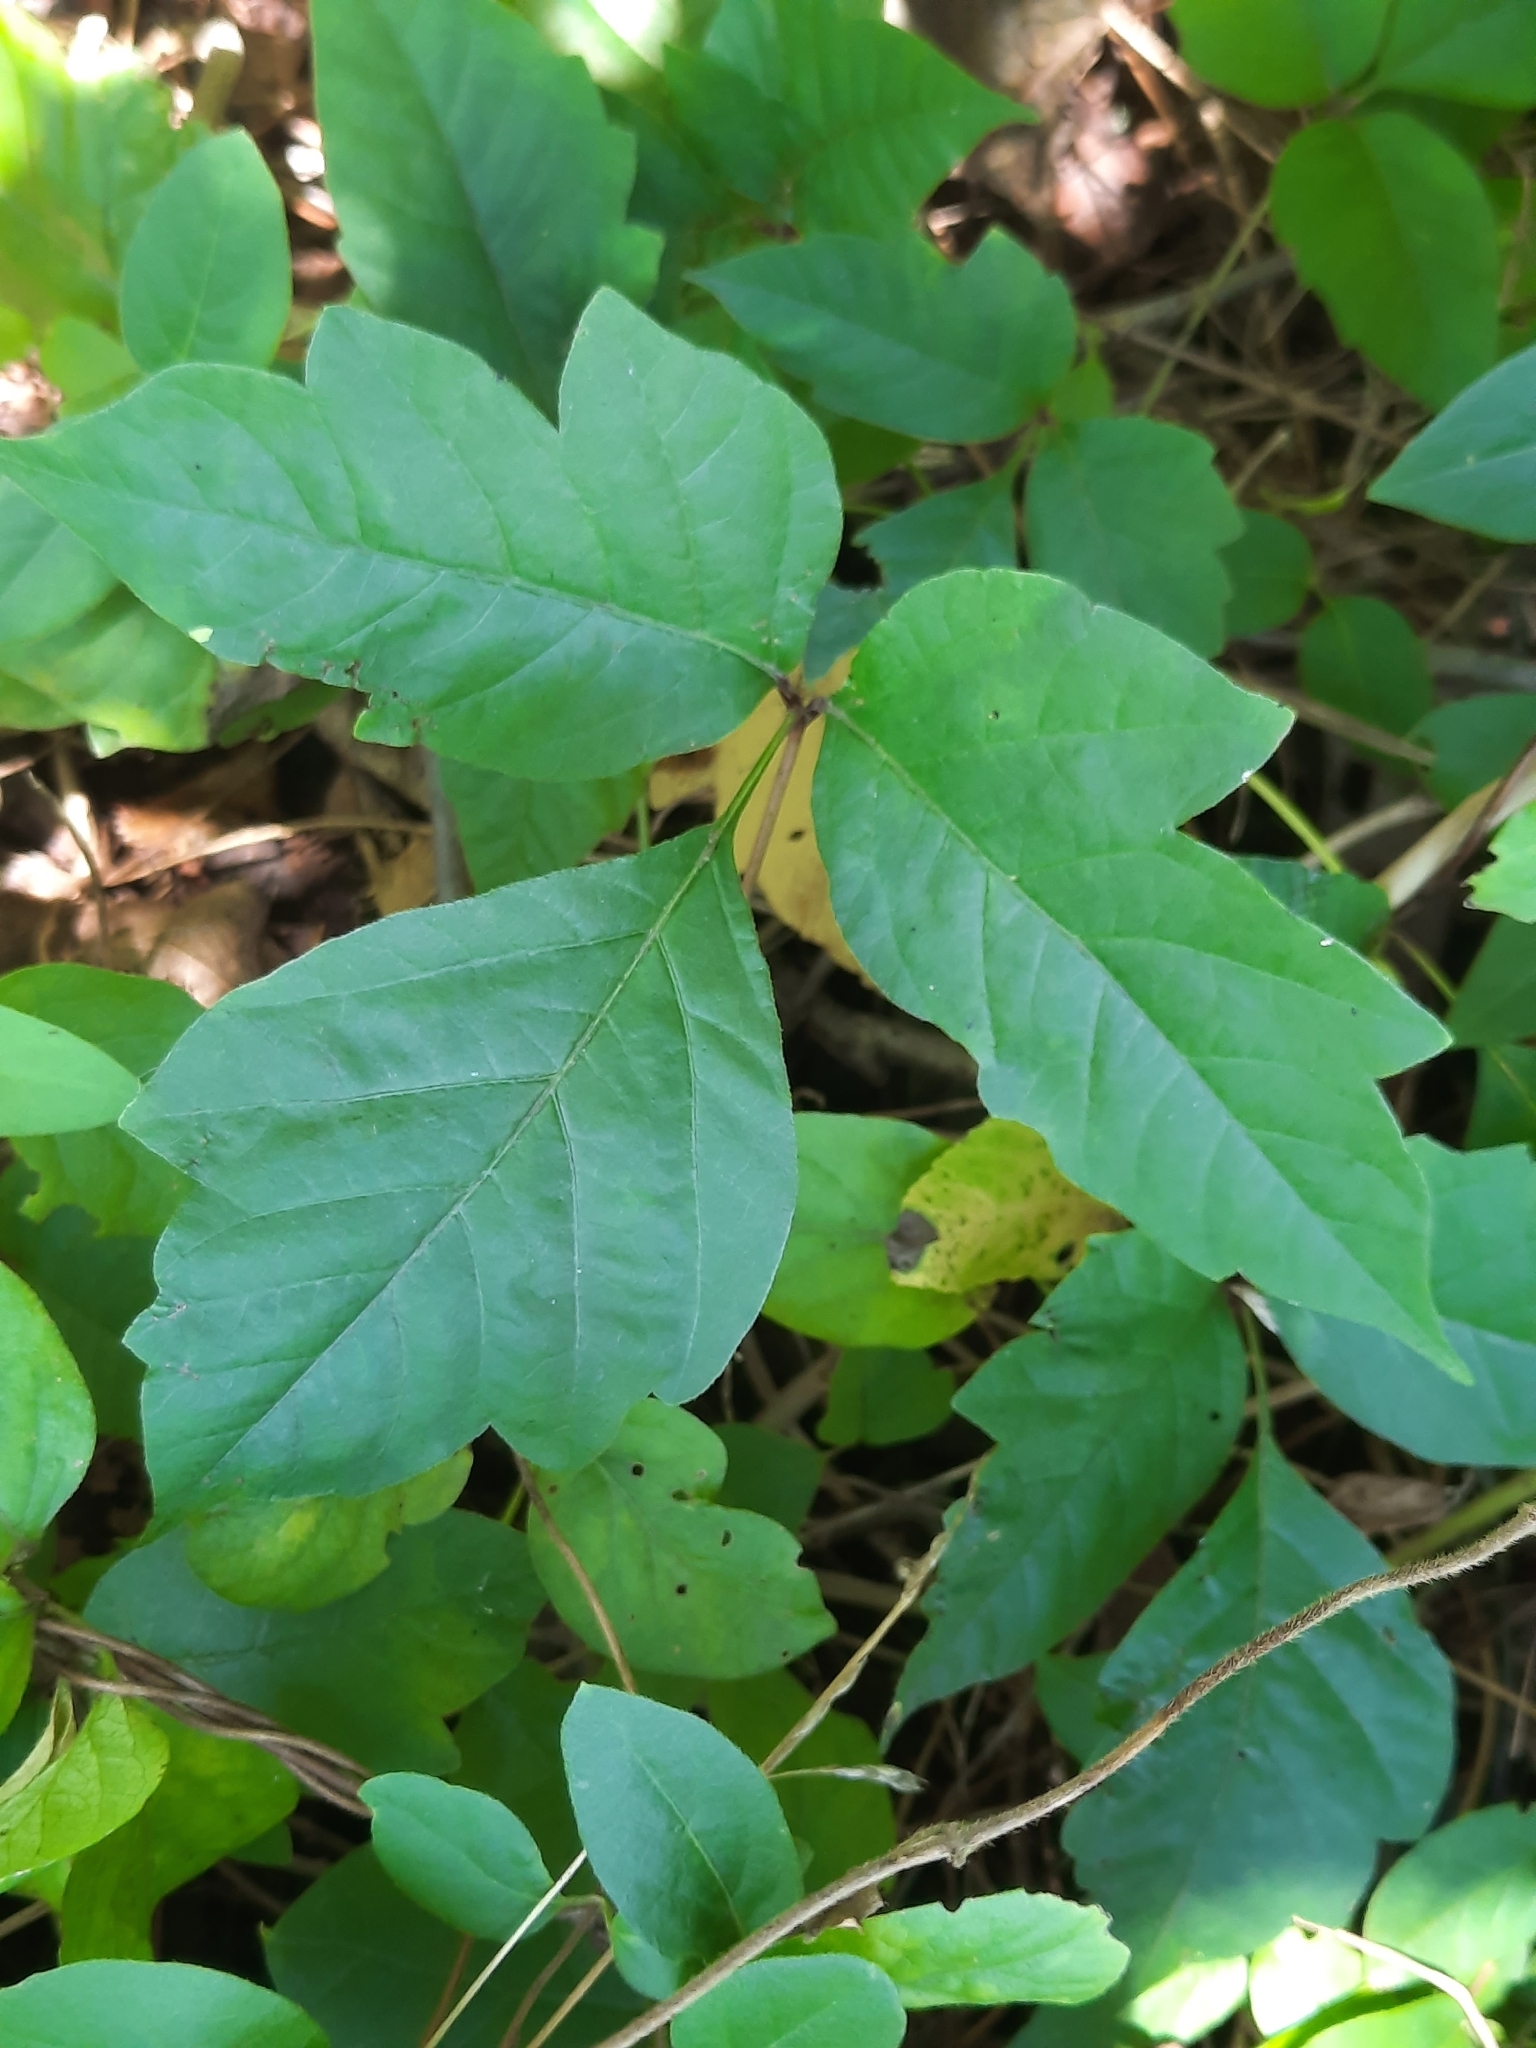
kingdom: Plantae
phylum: Tracheophyta
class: Magnoliopsida
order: Sapindales
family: Anacardiaceae
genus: Toxicodendron
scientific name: Toxicodendron radicans
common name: Poison ivy
